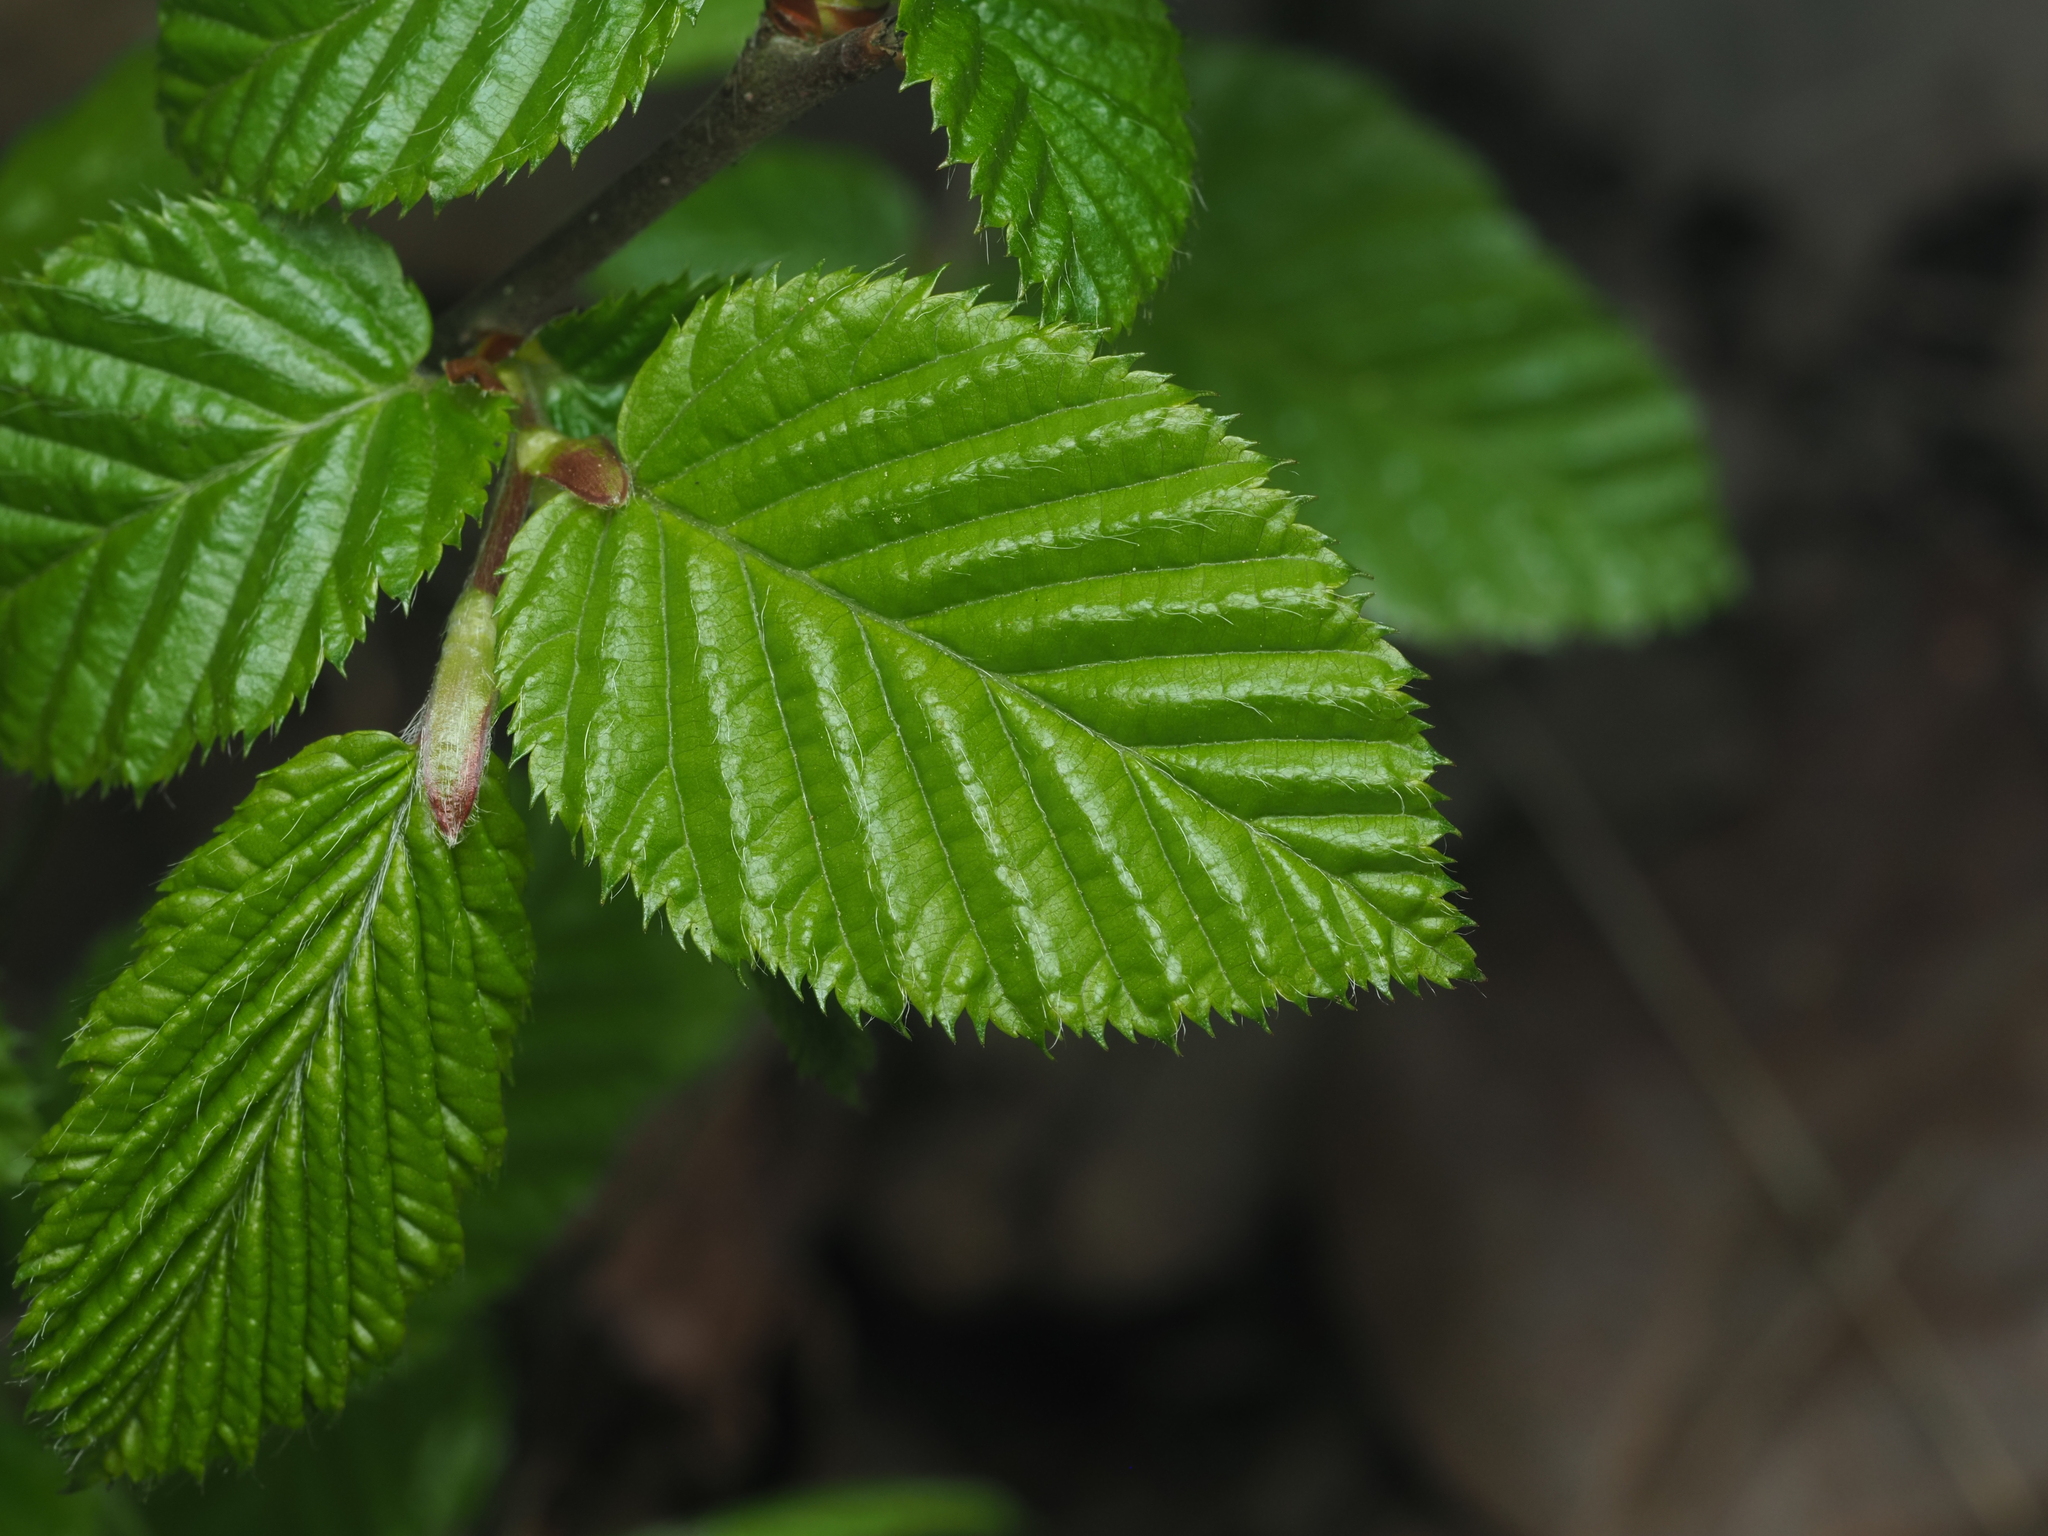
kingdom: Plantae
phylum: Tracheophyta
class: Magnoliopsida
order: Fagales
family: Betulaceae
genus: Carpinus
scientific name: Carpinus betulus
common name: Hornbeam
